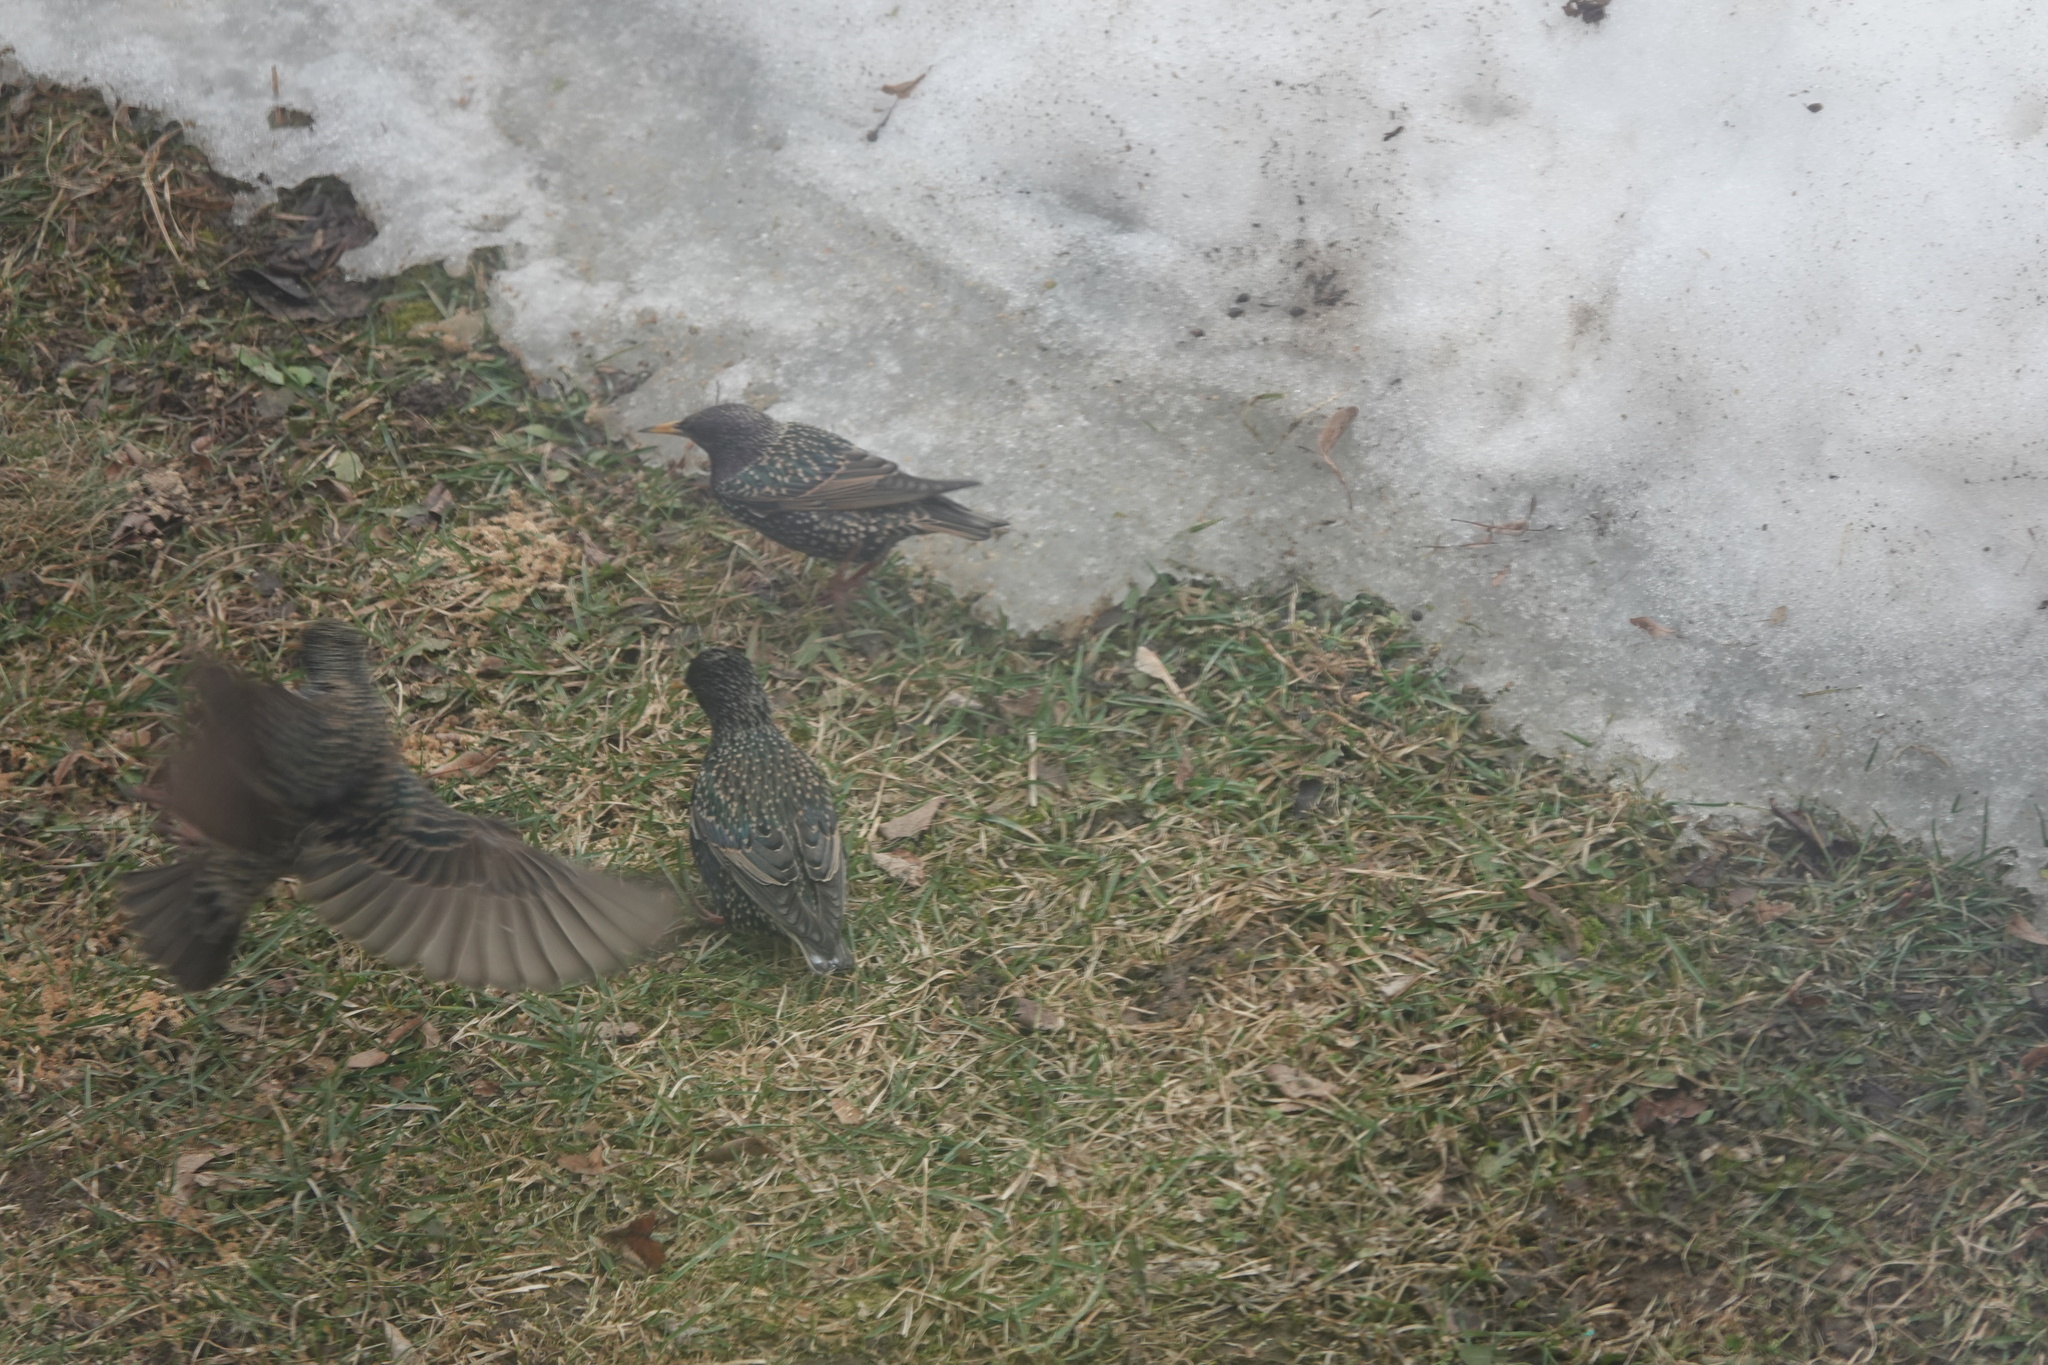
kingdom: Animalia
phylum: Chordata
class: Aves
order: Passeriformes
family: Sturnidae
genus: Sturnus
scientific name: Sturnus vulgaris
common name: Common starling
